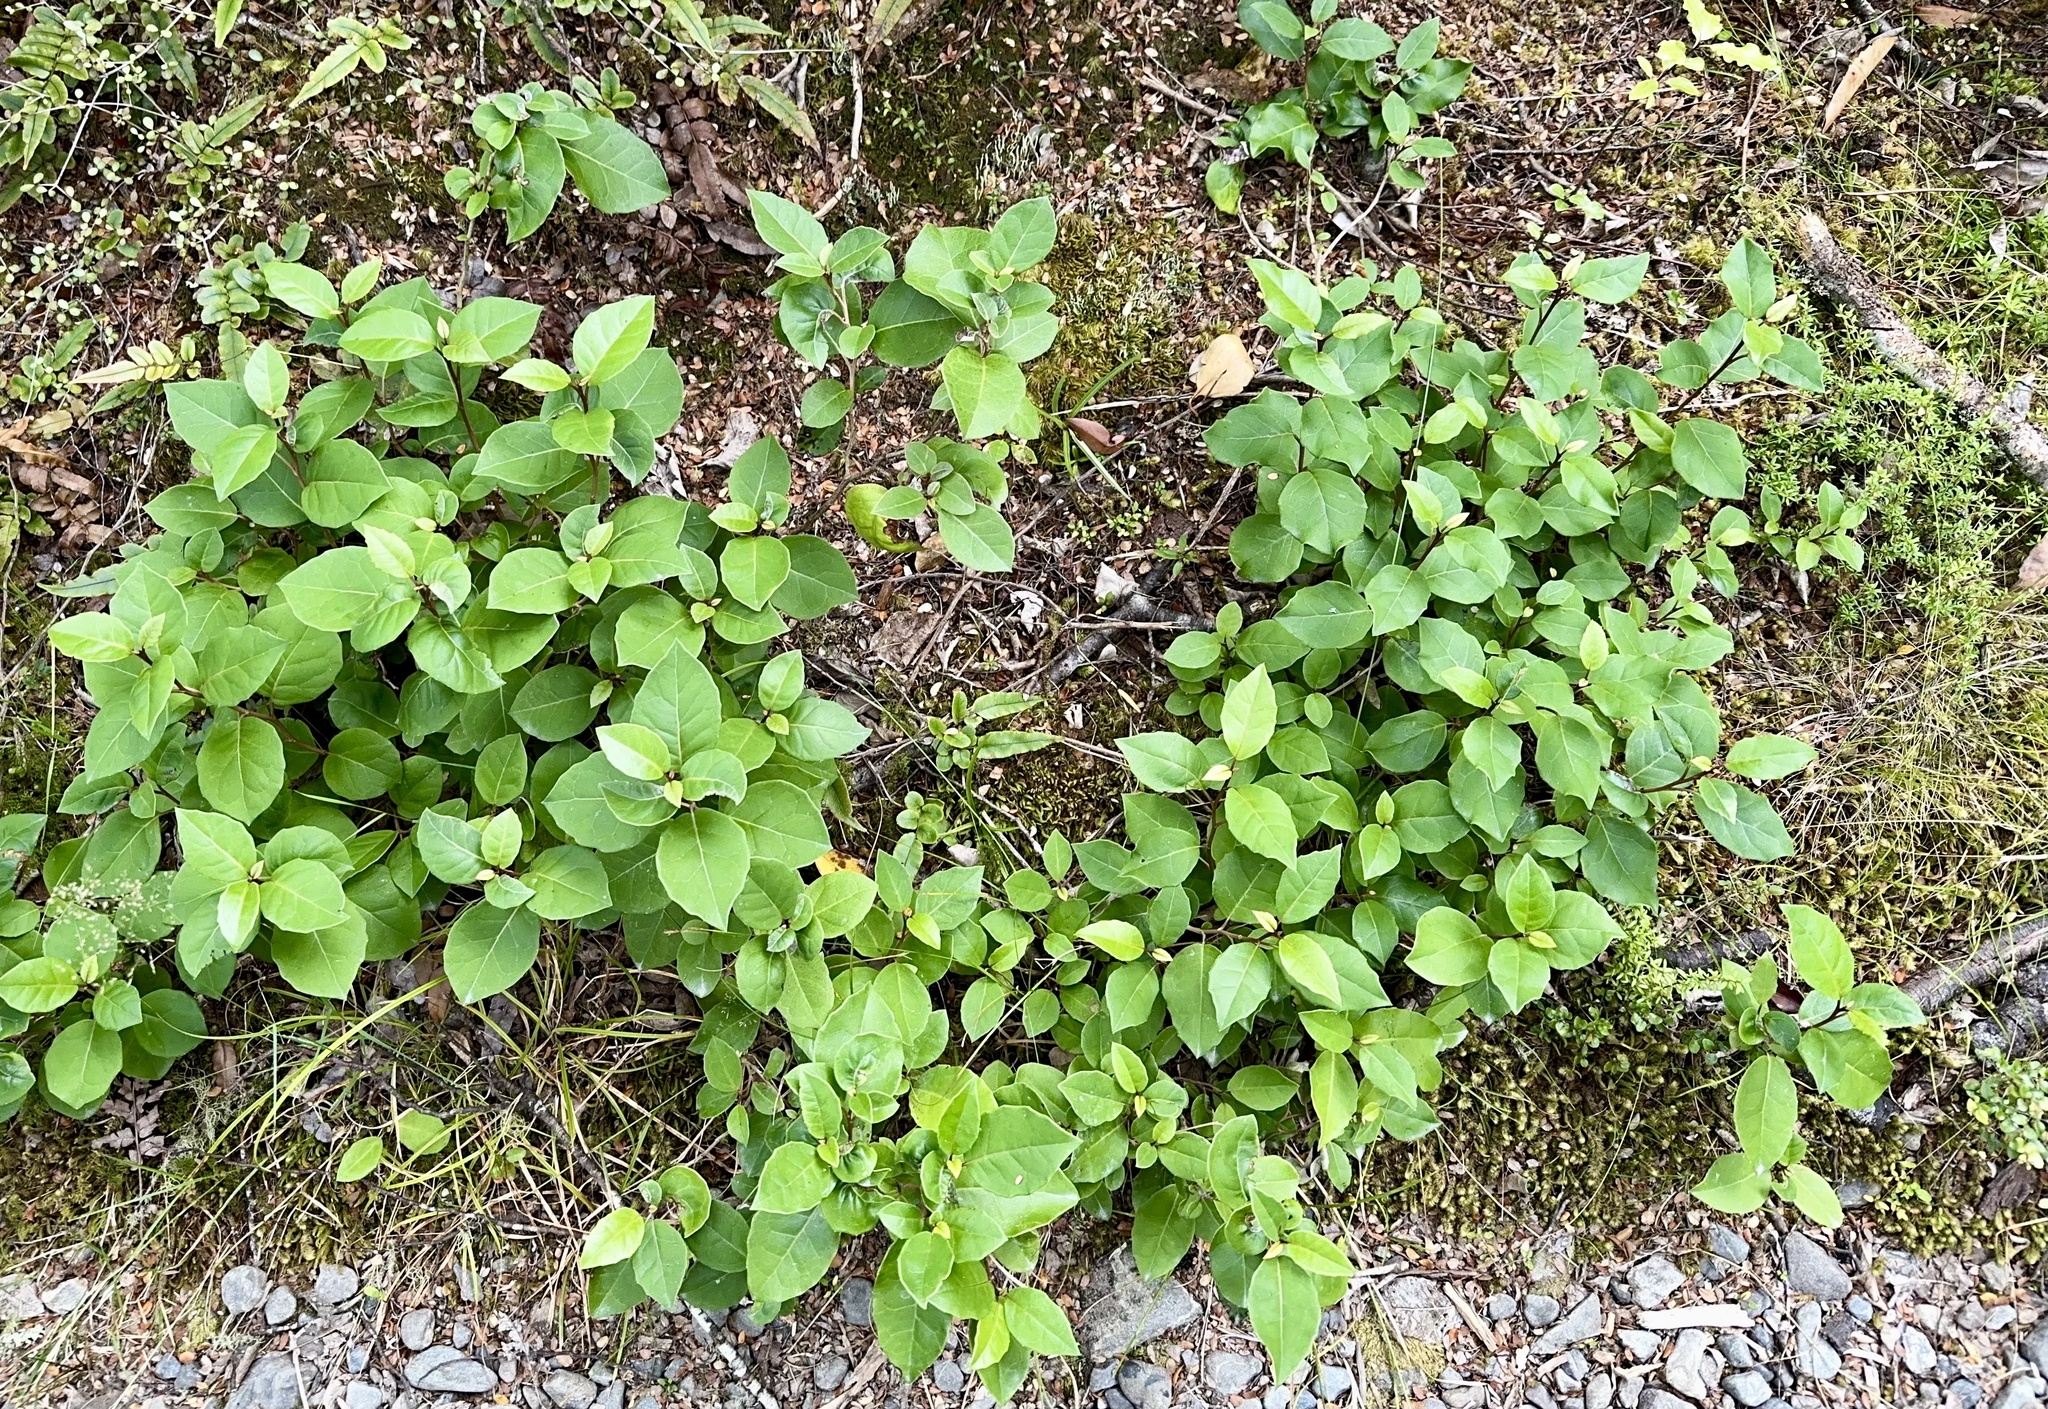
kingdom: Plantae
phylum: Tracheophyta
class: Magnoliopsida
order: Asterales
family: Asteraceae
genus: Olearia
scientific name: Olearia arborescens
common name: Glossy tree daisy
